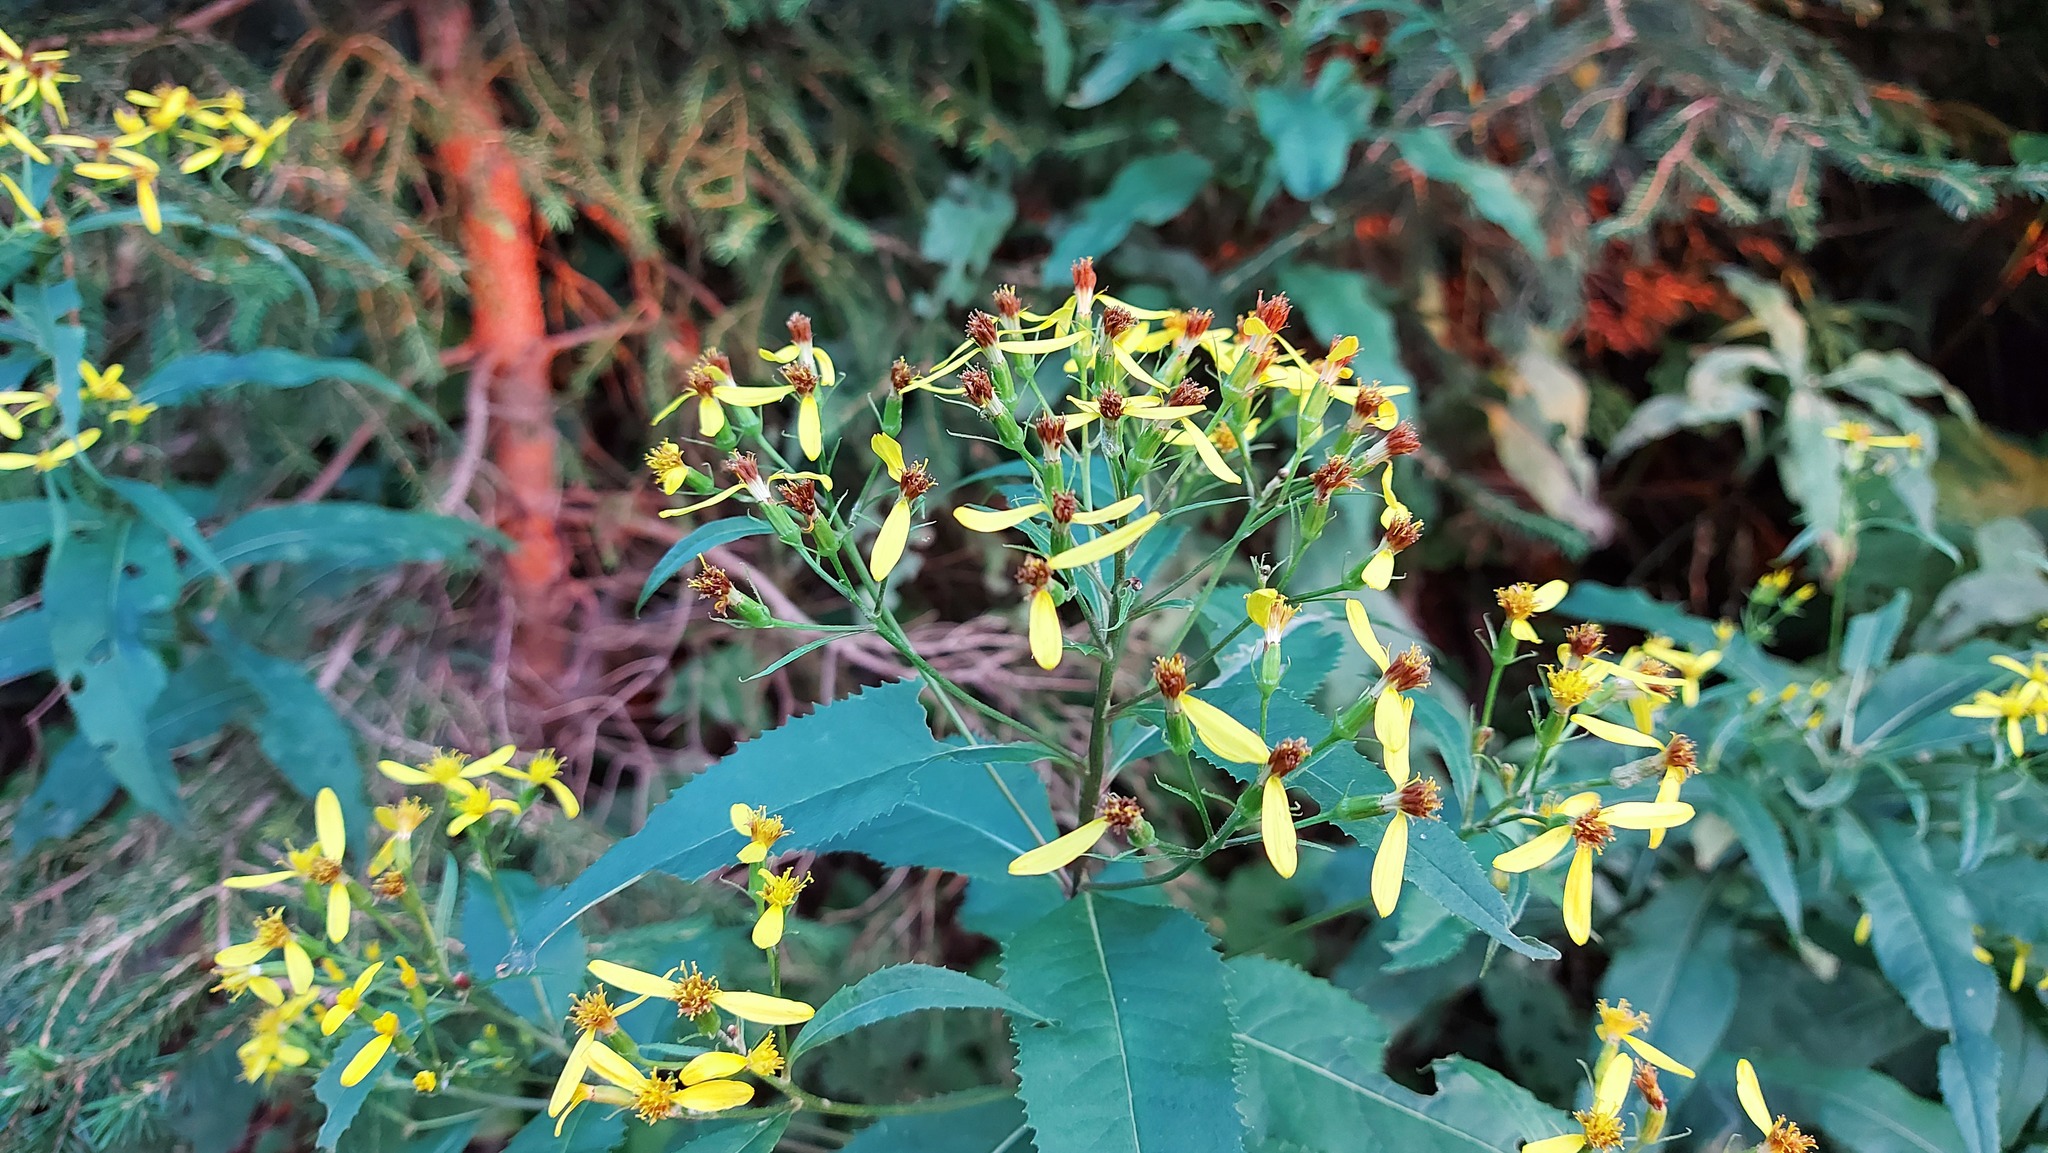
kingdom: Plantae
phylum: Tracheophyta
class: Magnoliopsida
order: Asterales
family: Asteraceae
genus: Senecio
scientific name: Senecio ovatus
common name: Wood ragwort
